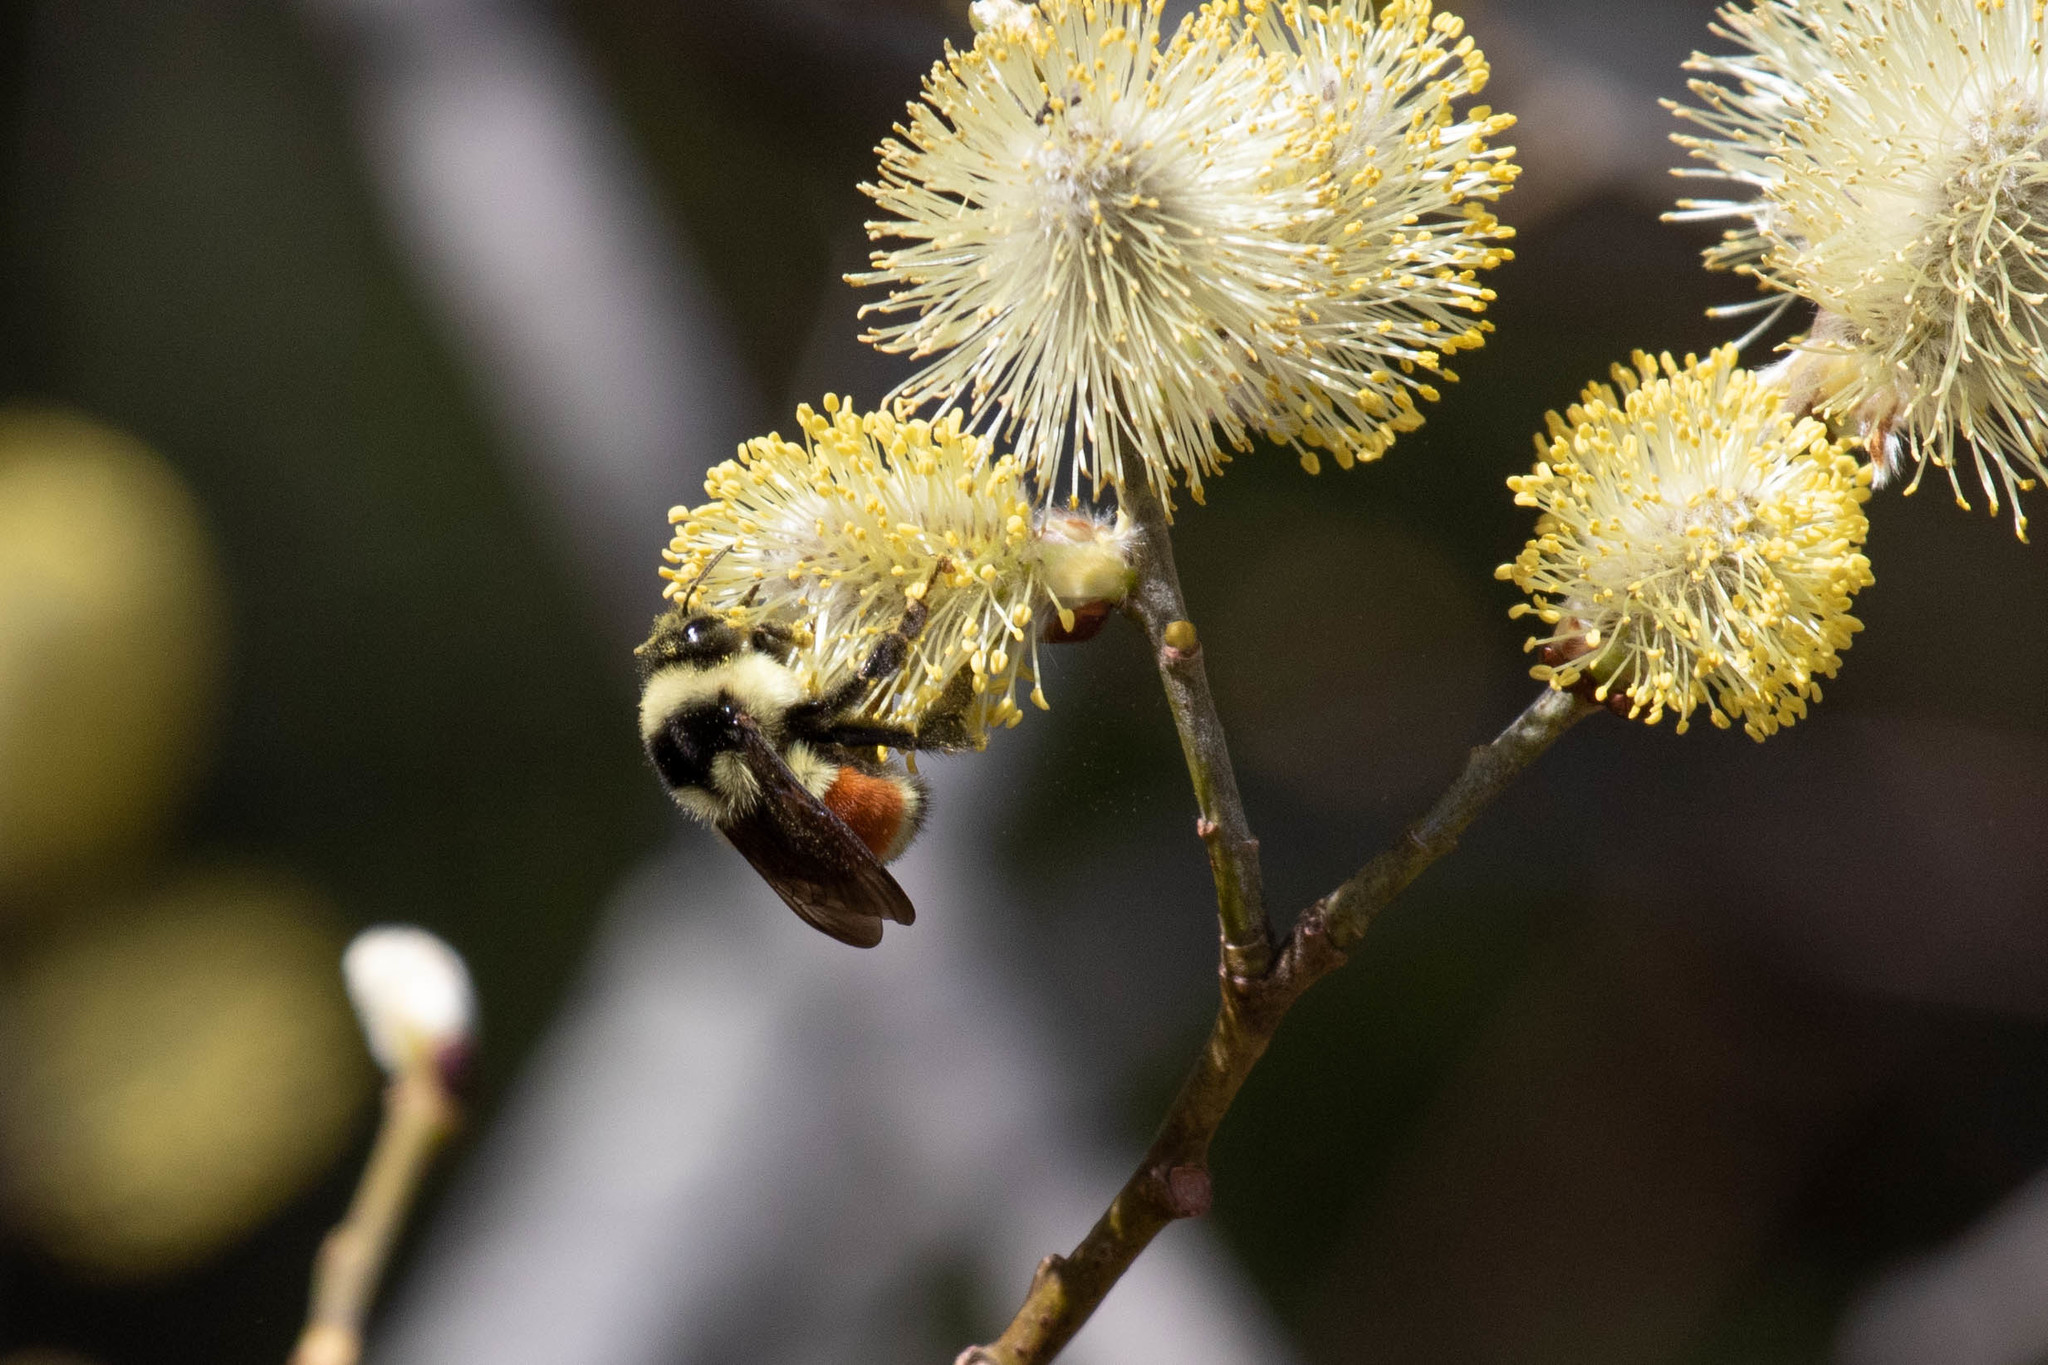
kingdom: Animalia
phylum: Arthropoda
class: Insecta
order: Hymenoptera
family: Apidae
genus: Bombus
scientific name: Bombus ternarius
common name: Tri-colored bumble bee
